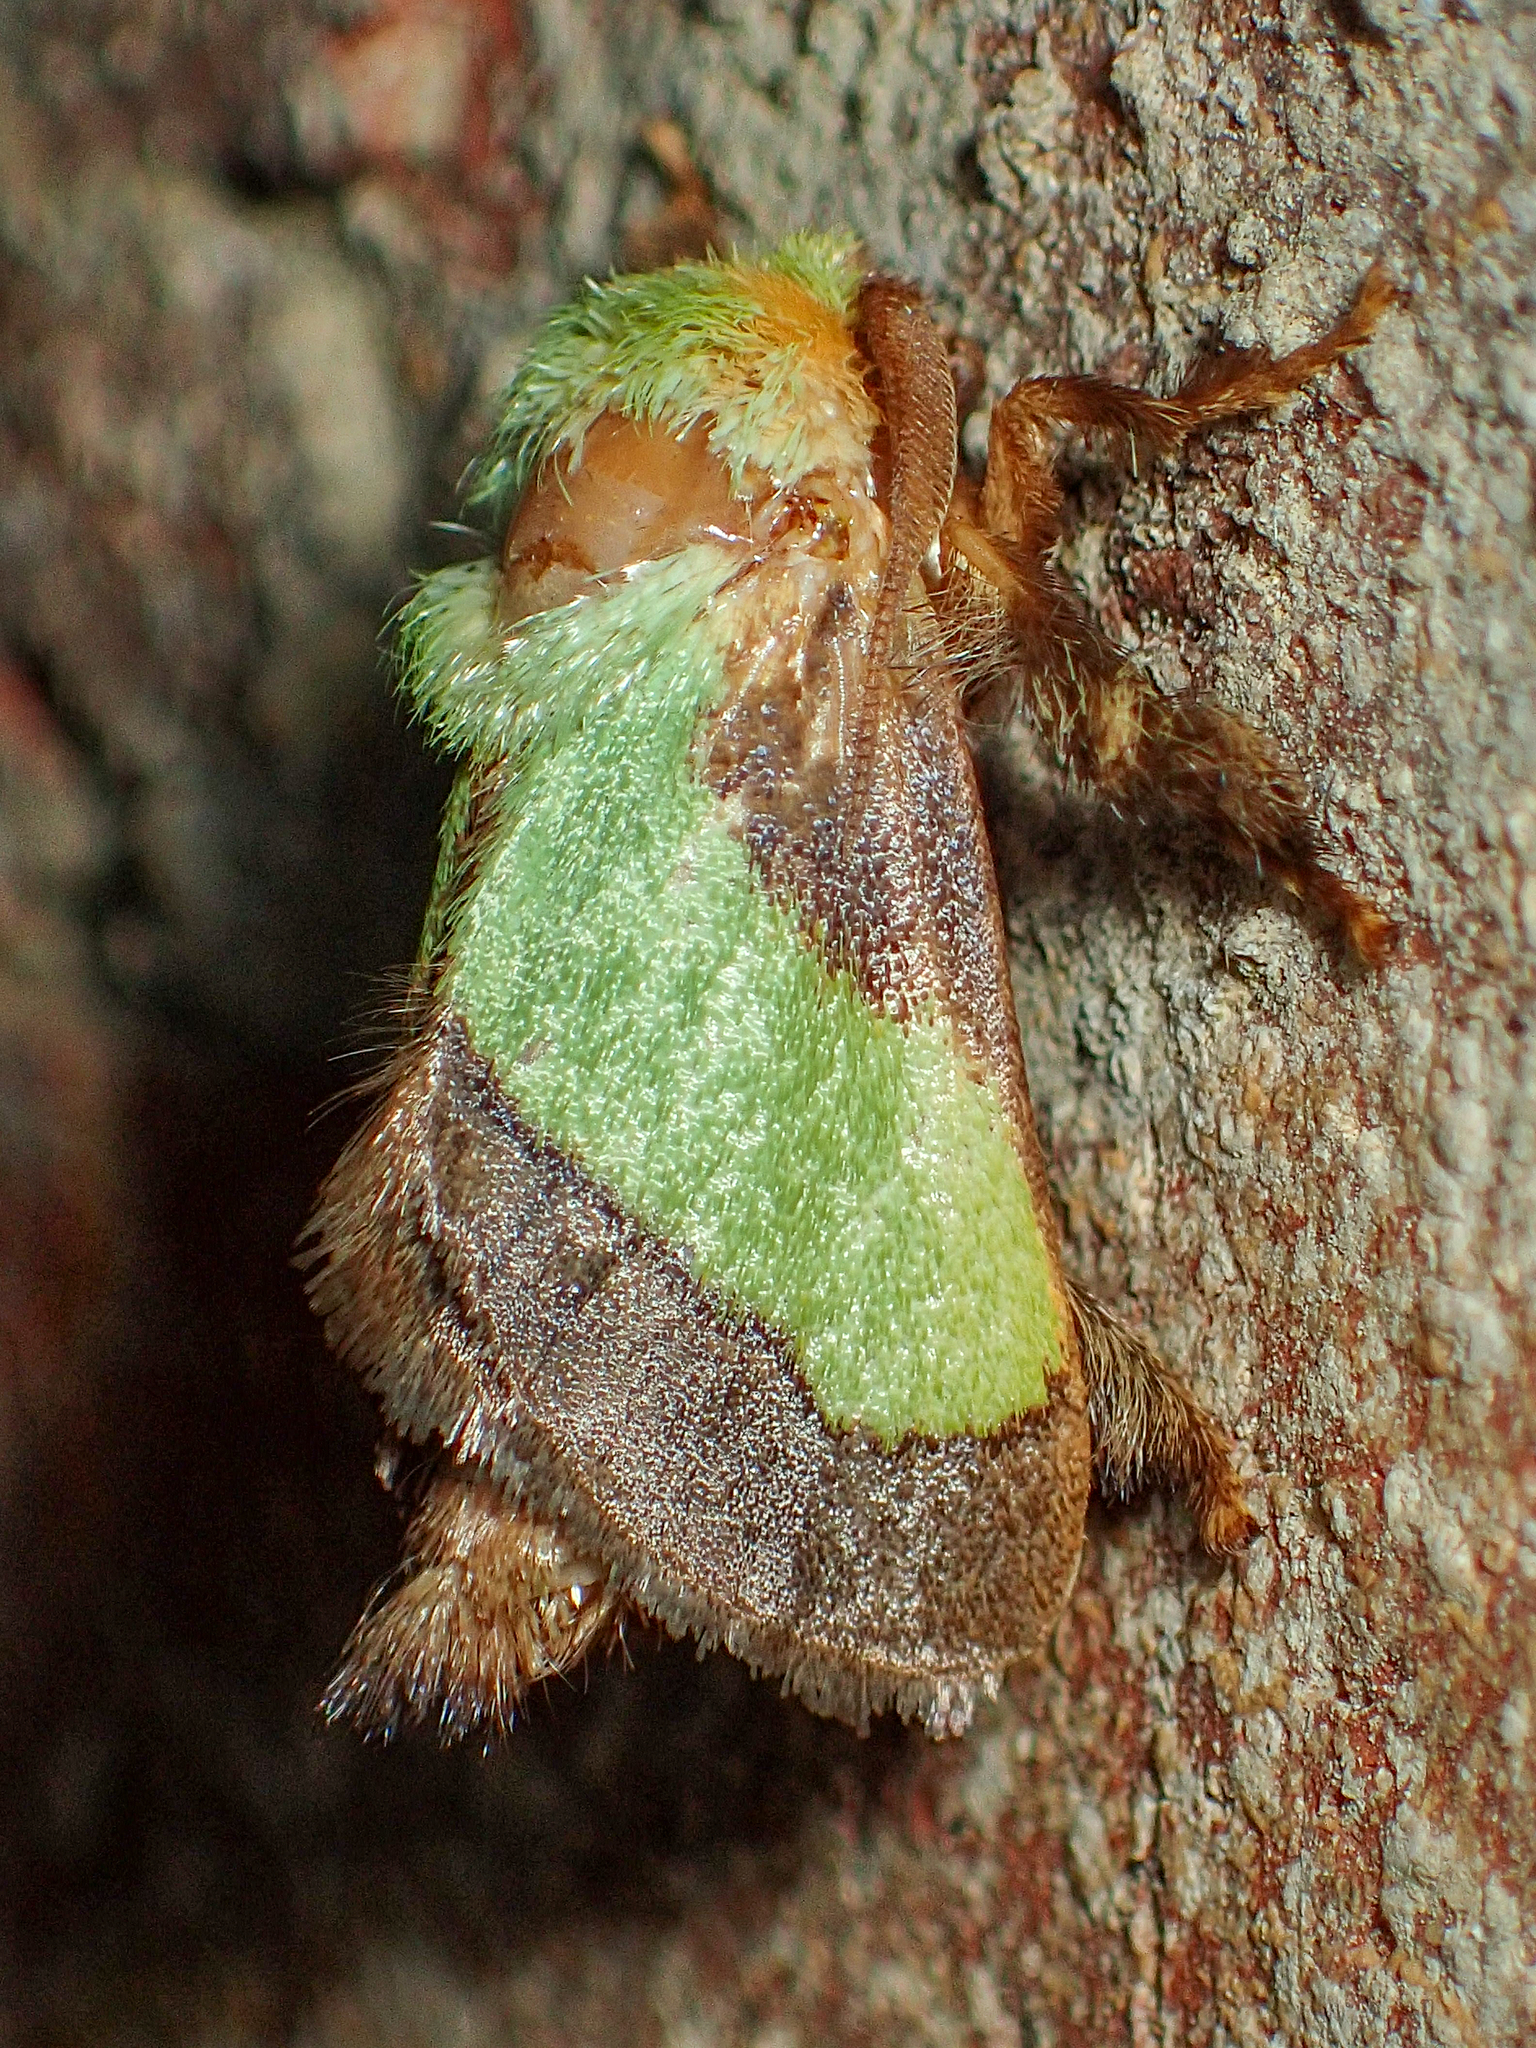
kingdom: Animalia
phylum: Arthropoda
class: Insecta
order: Lepidoptera
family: Limacodidae
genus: Parasa
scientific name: Parasa chloris
